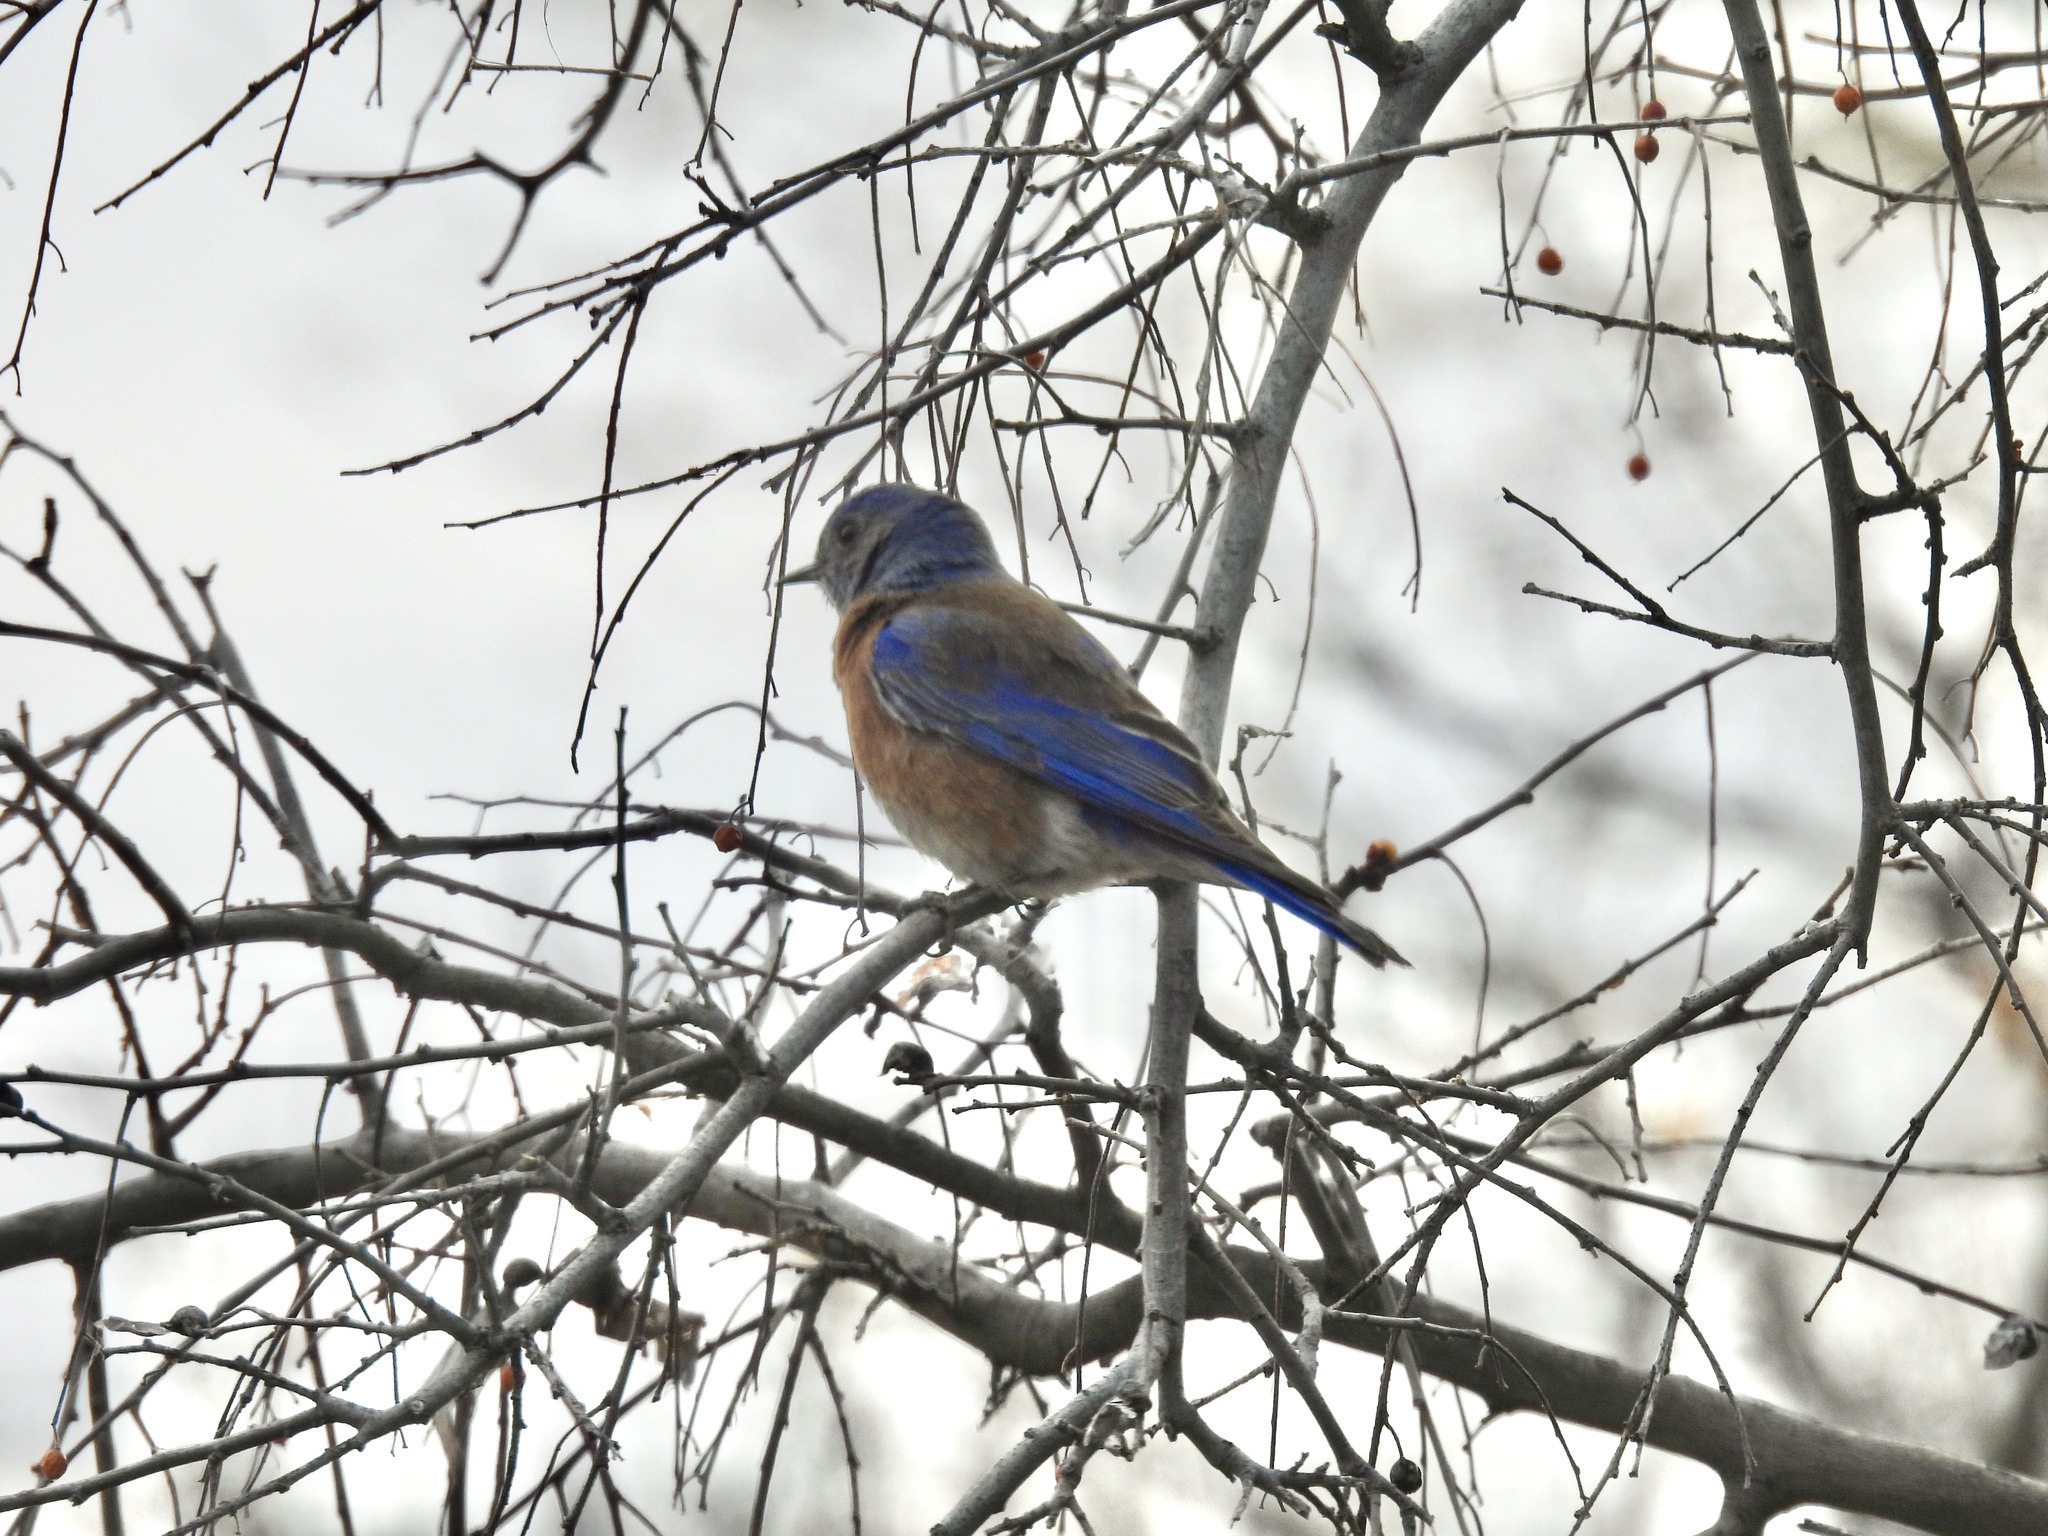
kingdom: Animalia
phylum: Chordata
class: Aves
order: Passeriformes
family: Turdidae
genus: Sialia
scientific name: Sialia mexicana
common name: Western bluebird
